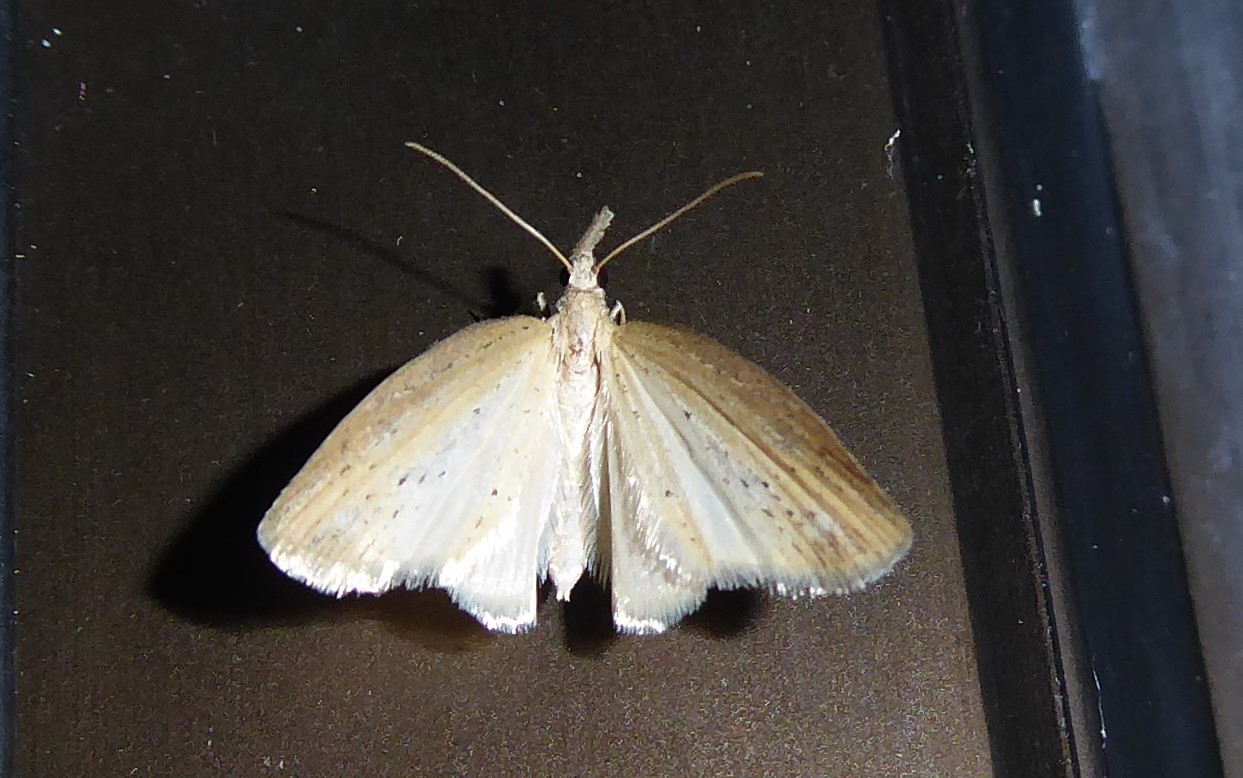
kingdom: Animalia
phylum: Arthropoda
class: Insecta
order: Lepidoptera
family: Geometridae
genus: Microdes
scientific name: Microdes epicryptis
